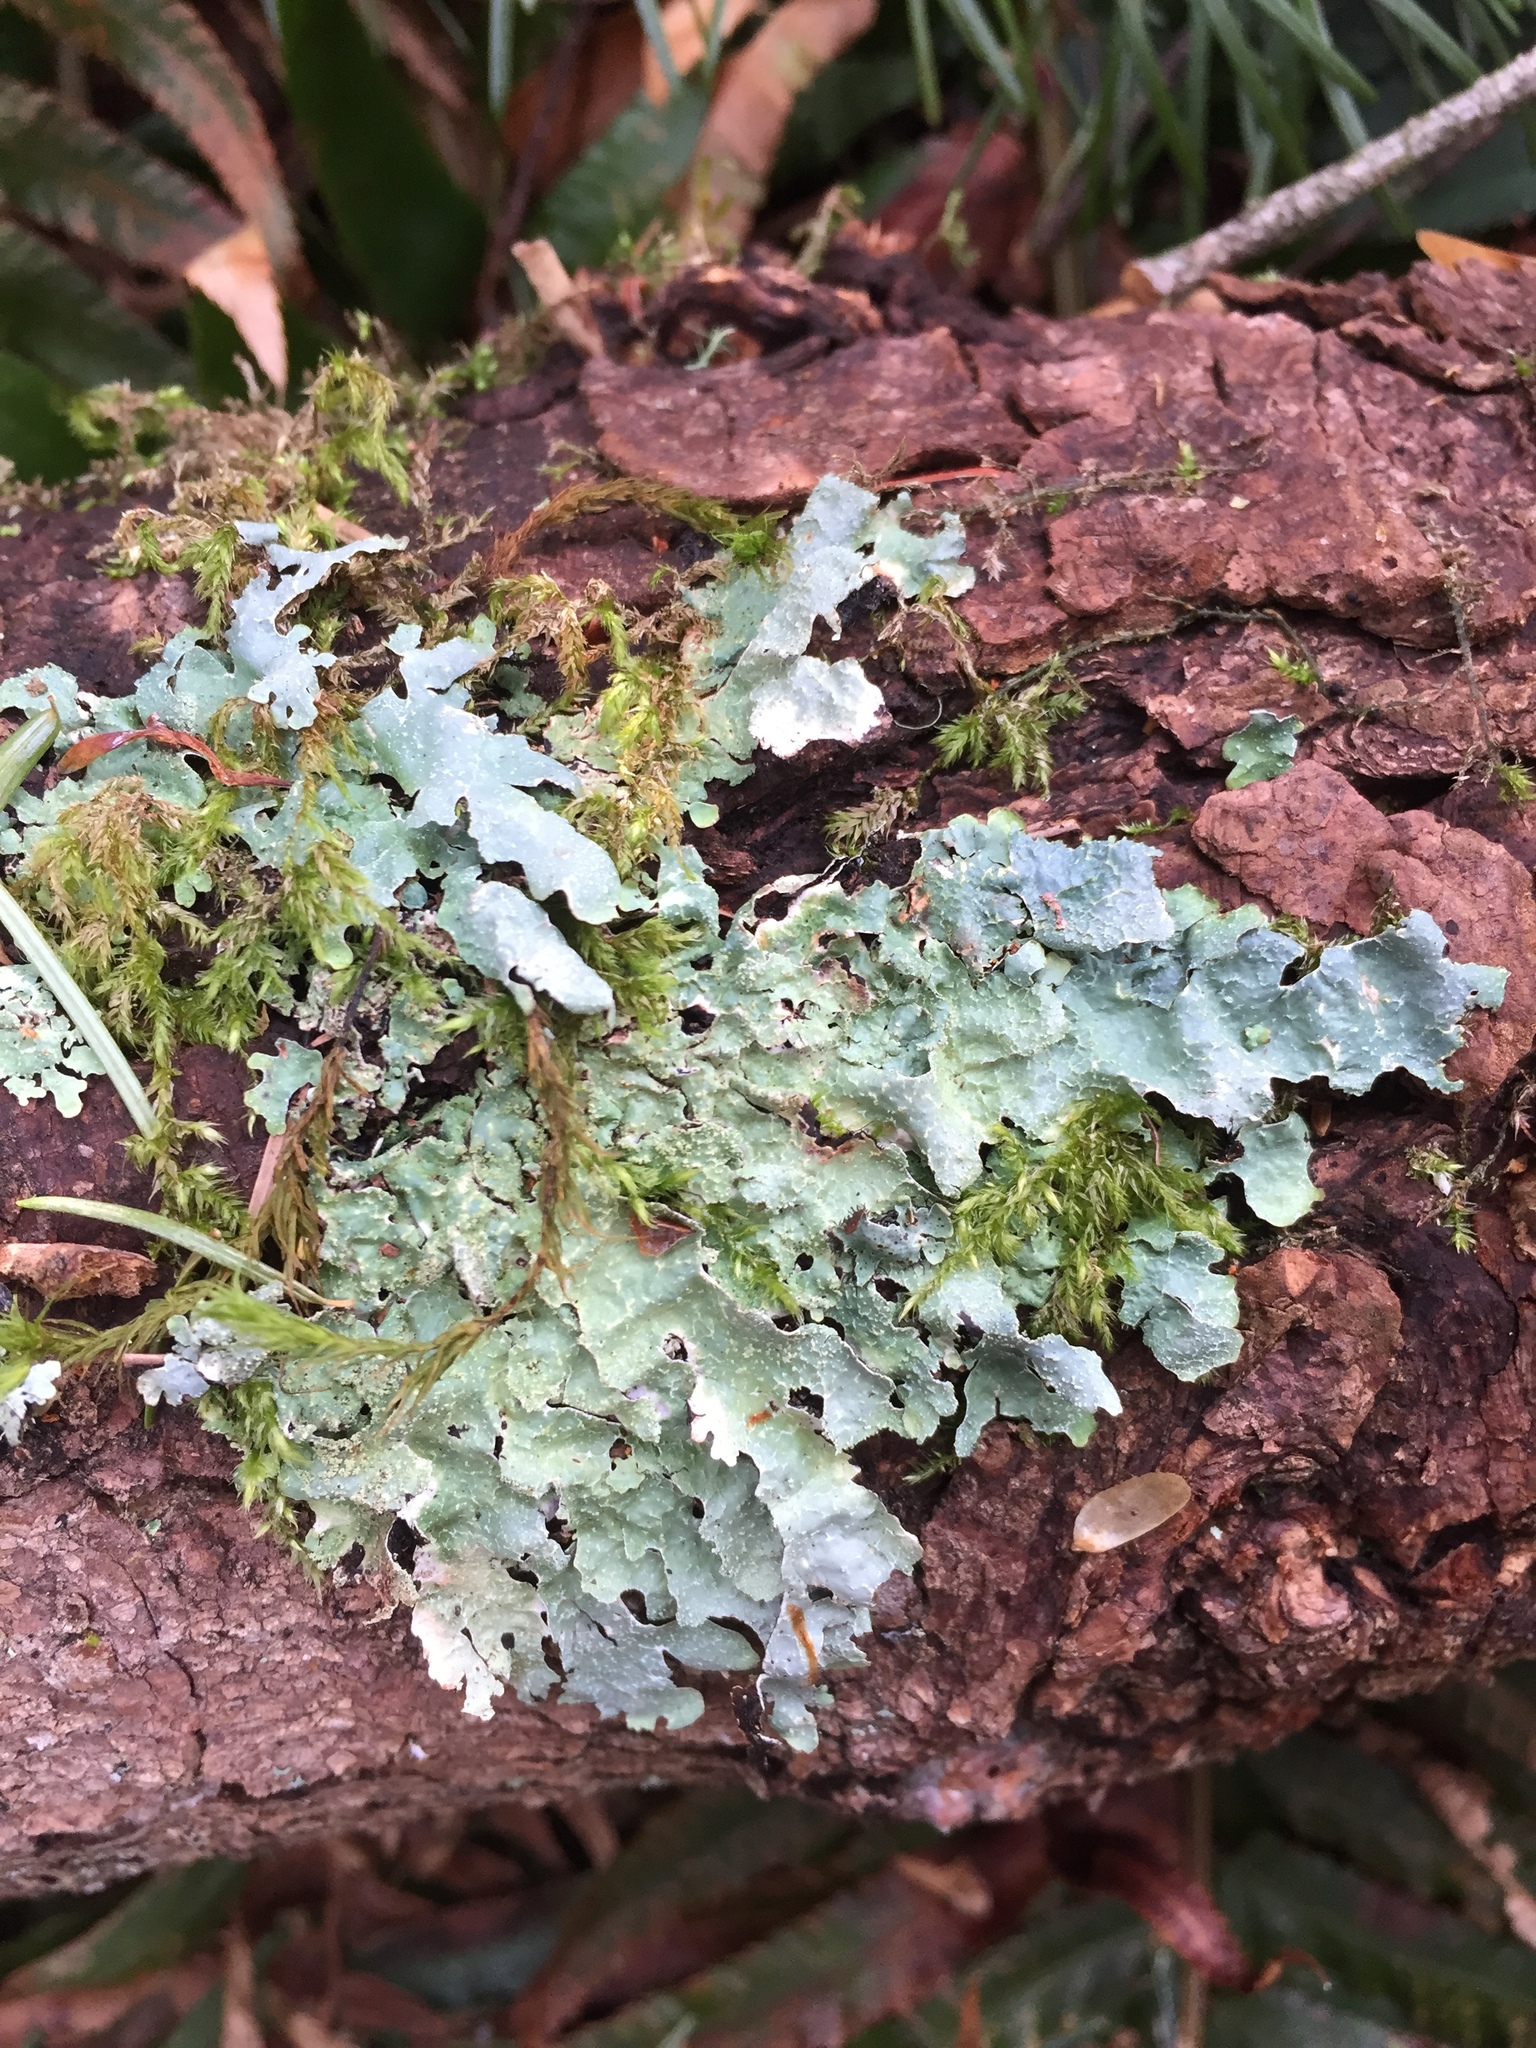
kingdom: Fungi
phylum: Ascomycota
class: Lecanoromycetes
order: Lecanorales
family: Parmeliaceae
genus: Parmelia
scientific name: Parmelia sulcata
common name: Netted shield lichen
